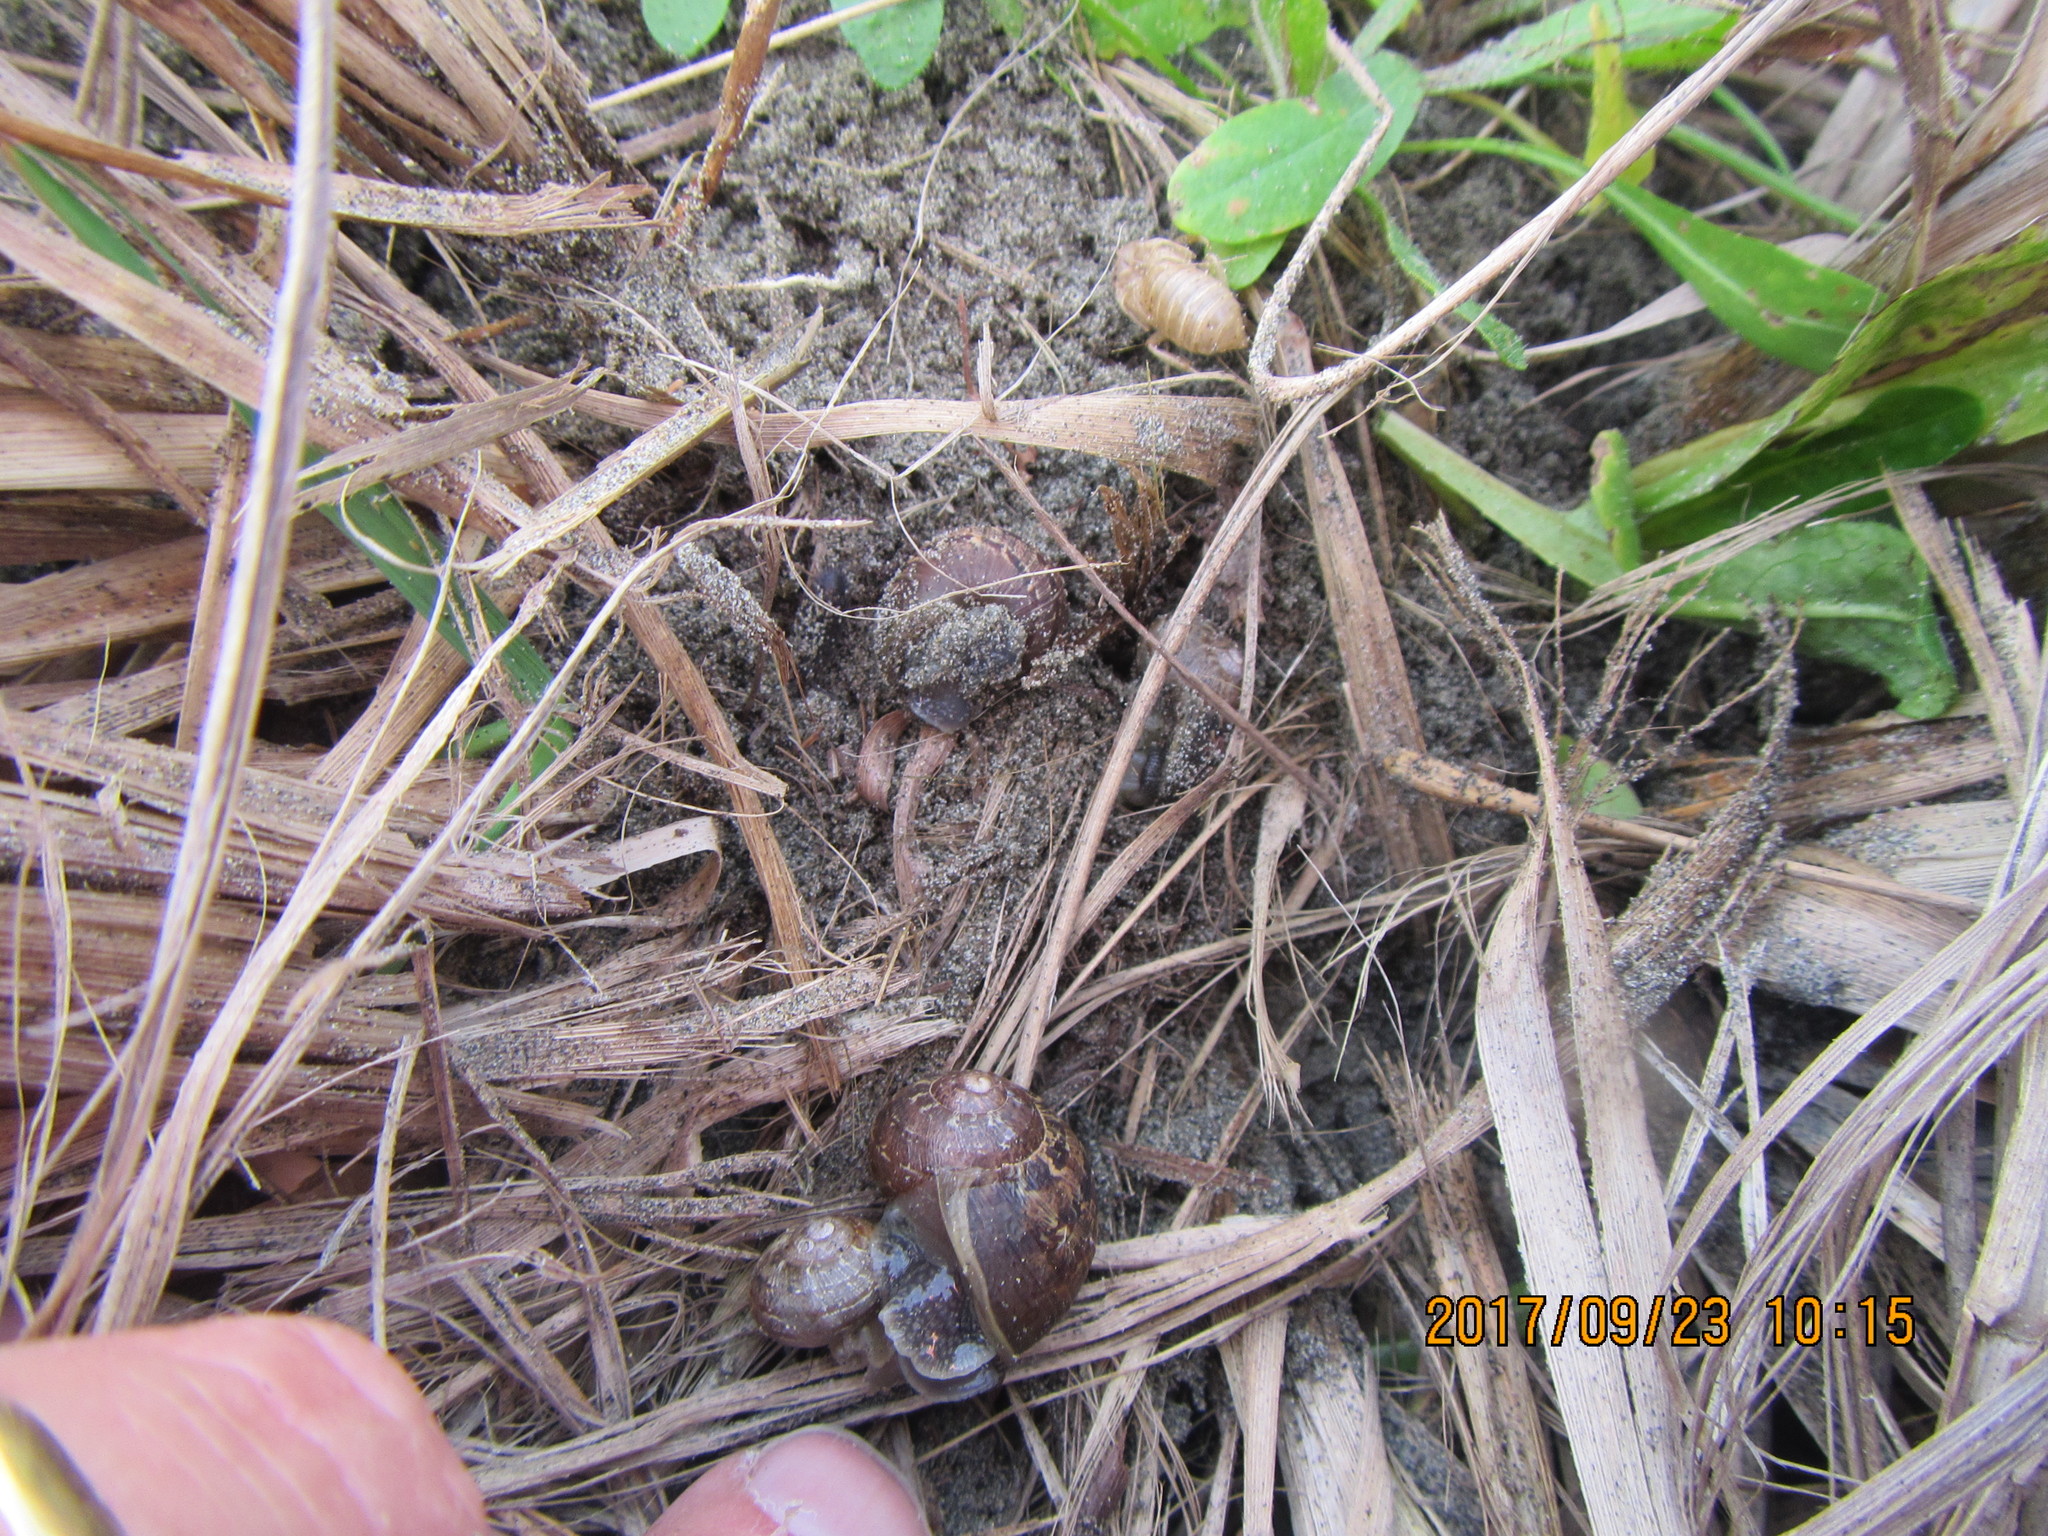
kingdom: Animalia
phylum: Mollusca
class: Gastropoda
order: Stylommatophora
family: Helicidae
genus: Cornu
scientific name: Cornu aspersum
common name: Brown garden snail
